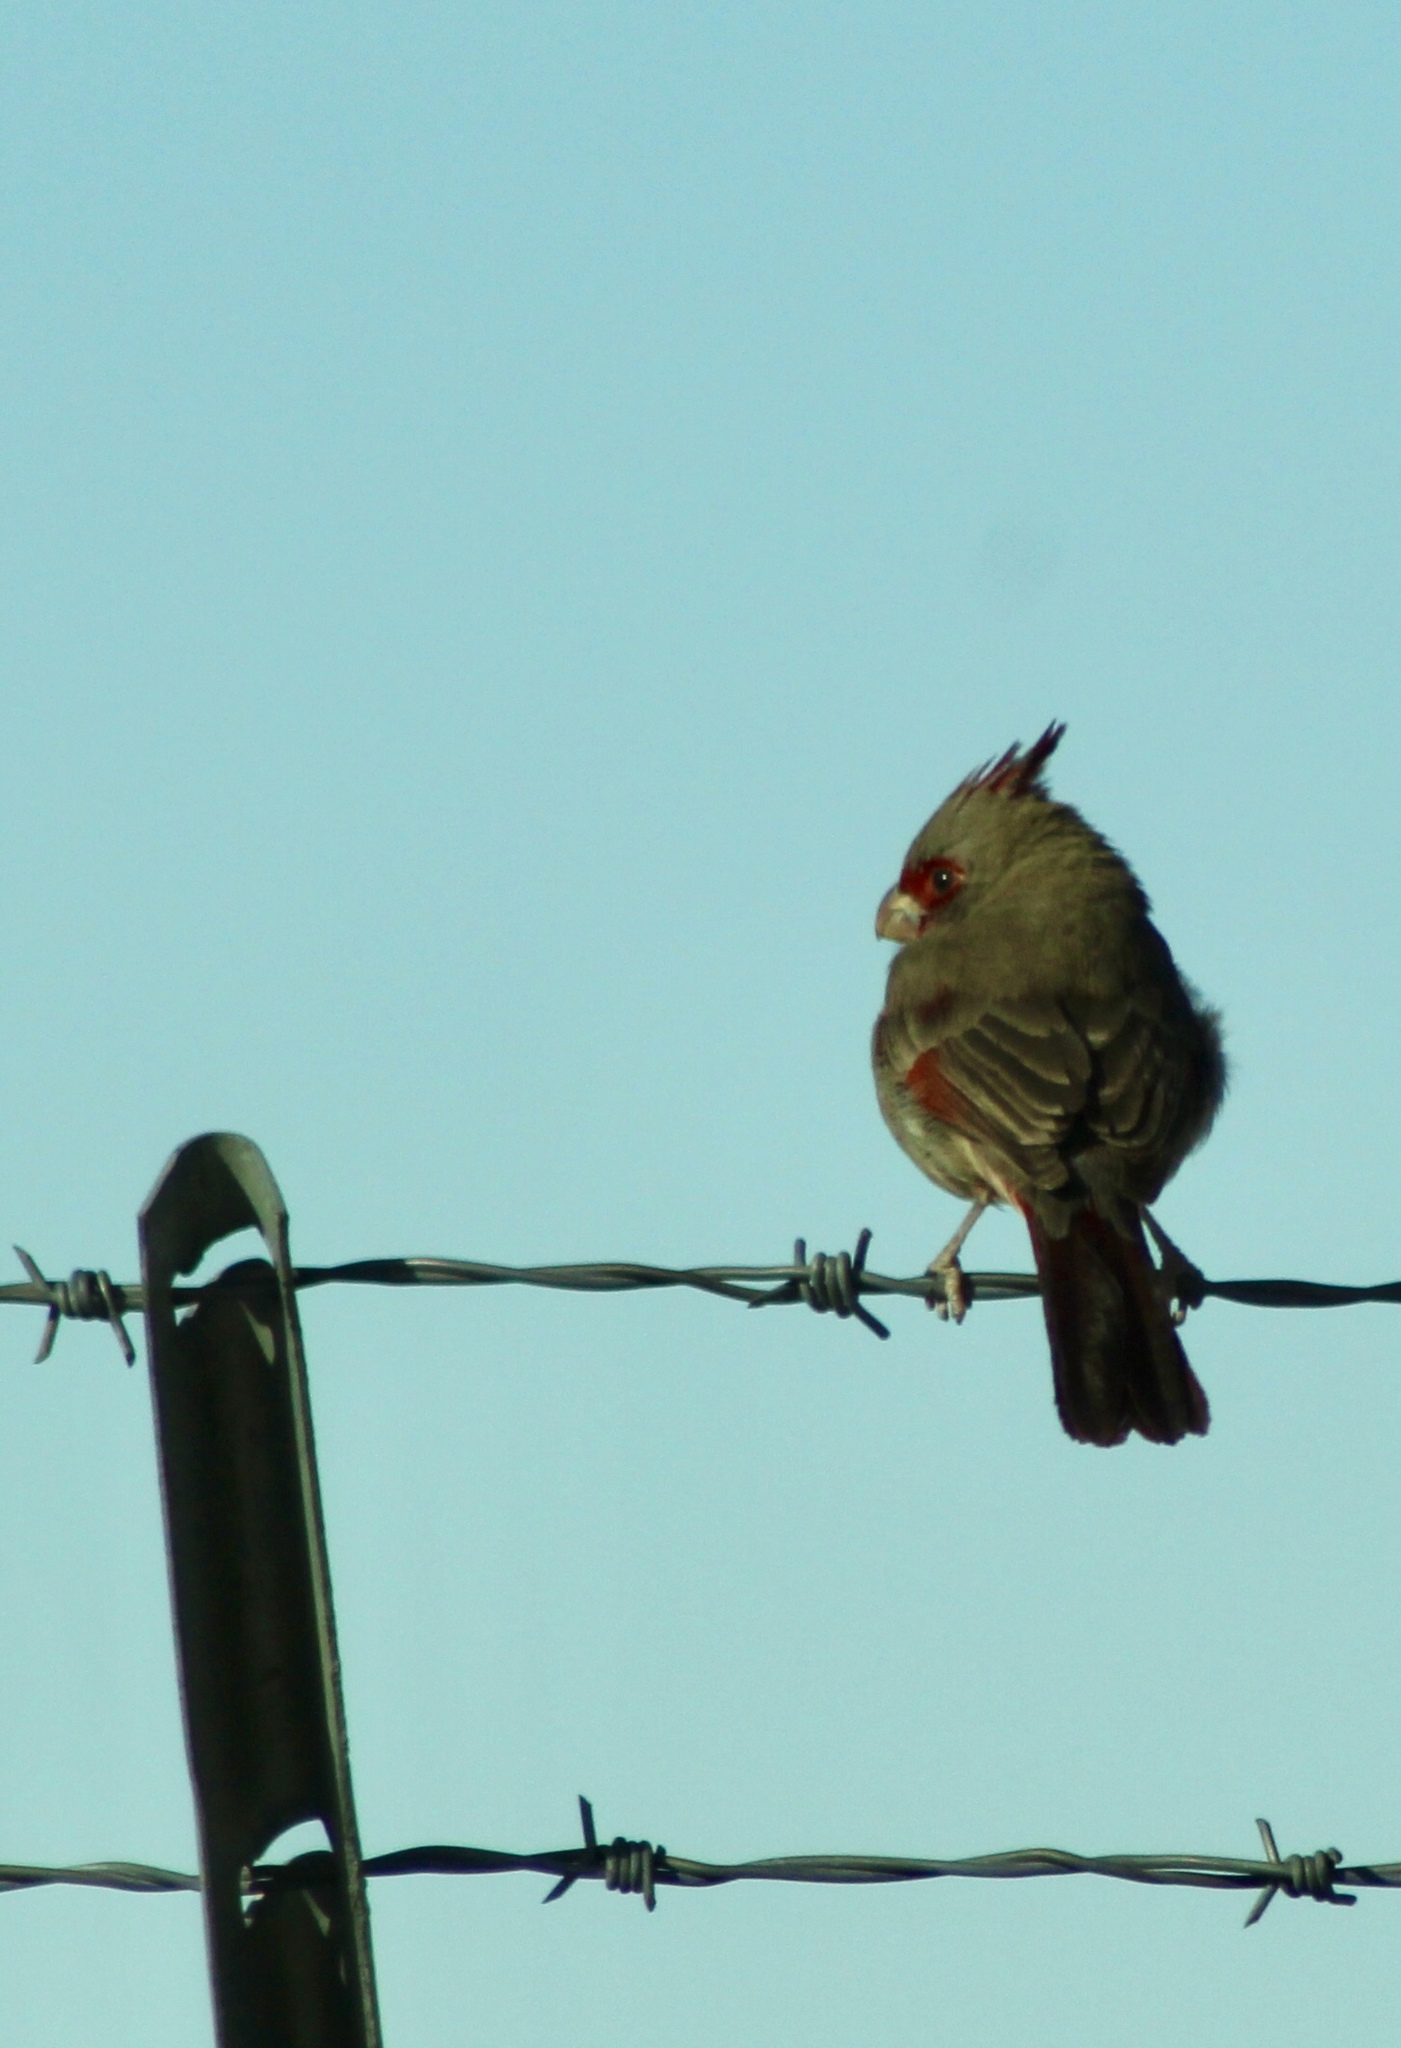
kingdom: Animalia
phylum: Chordata
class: Aves
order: Passeriformes
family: Cardinalidae
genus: Cardinalis
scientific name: Cardinalis sinuatus
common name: Pyrrhuloxia
